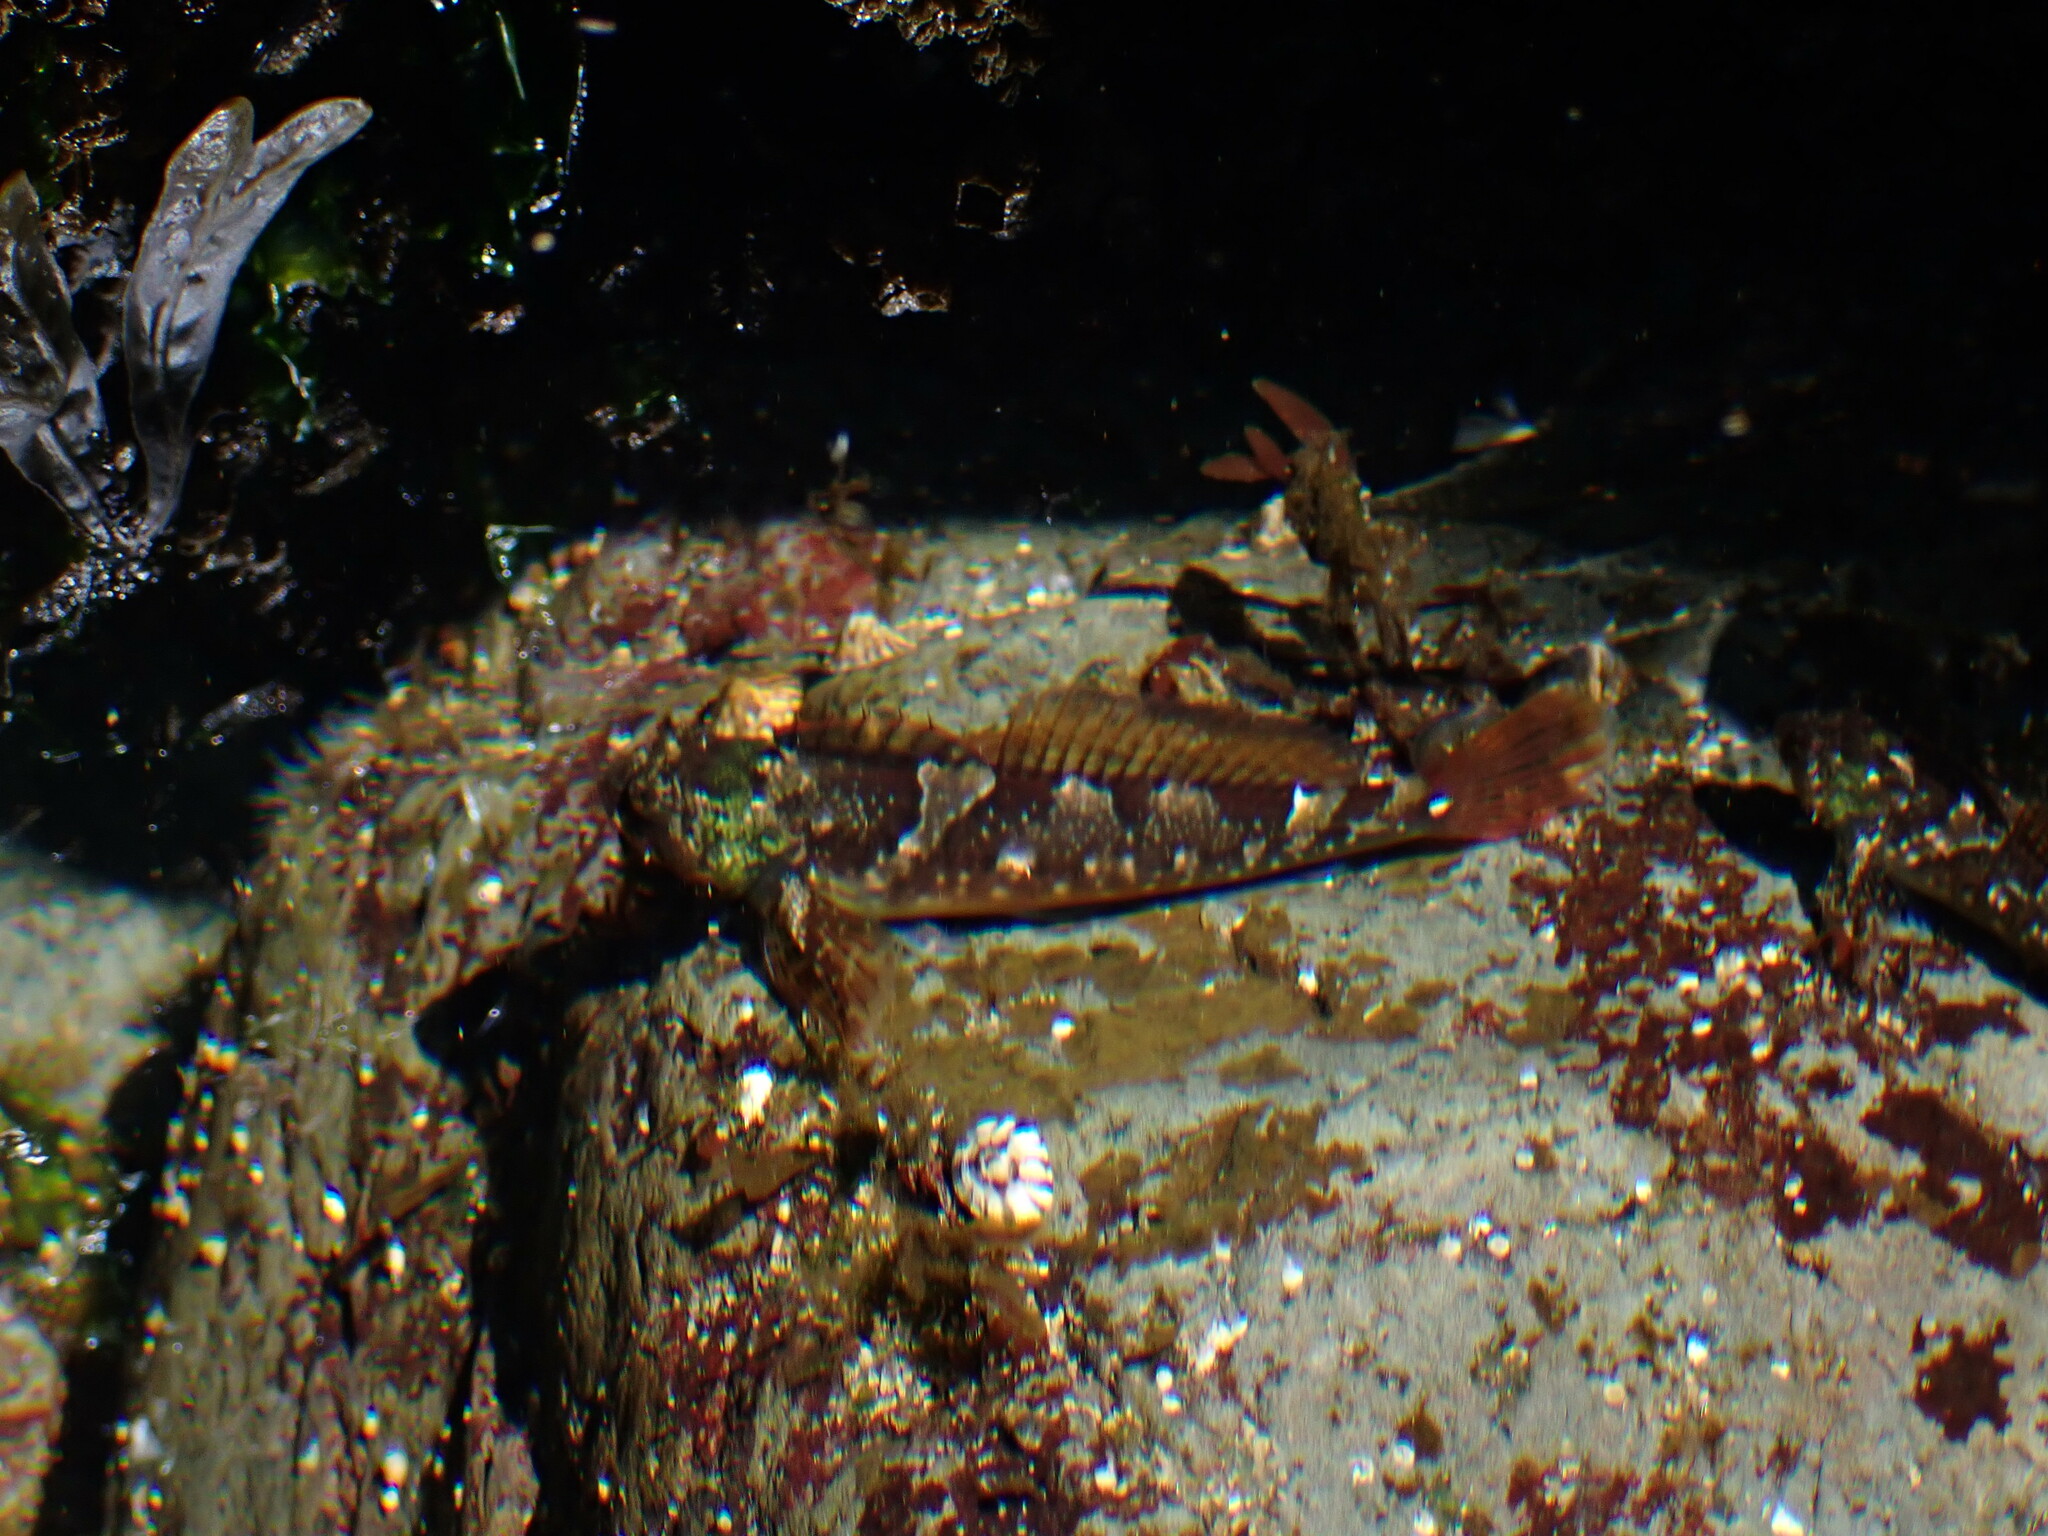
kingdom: Animalia
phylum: Chordata
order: Scorpaeniformes
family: Cottidae
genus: Oligocottus
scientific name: Oligocottus maculosus
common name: Tidepool sculpin
